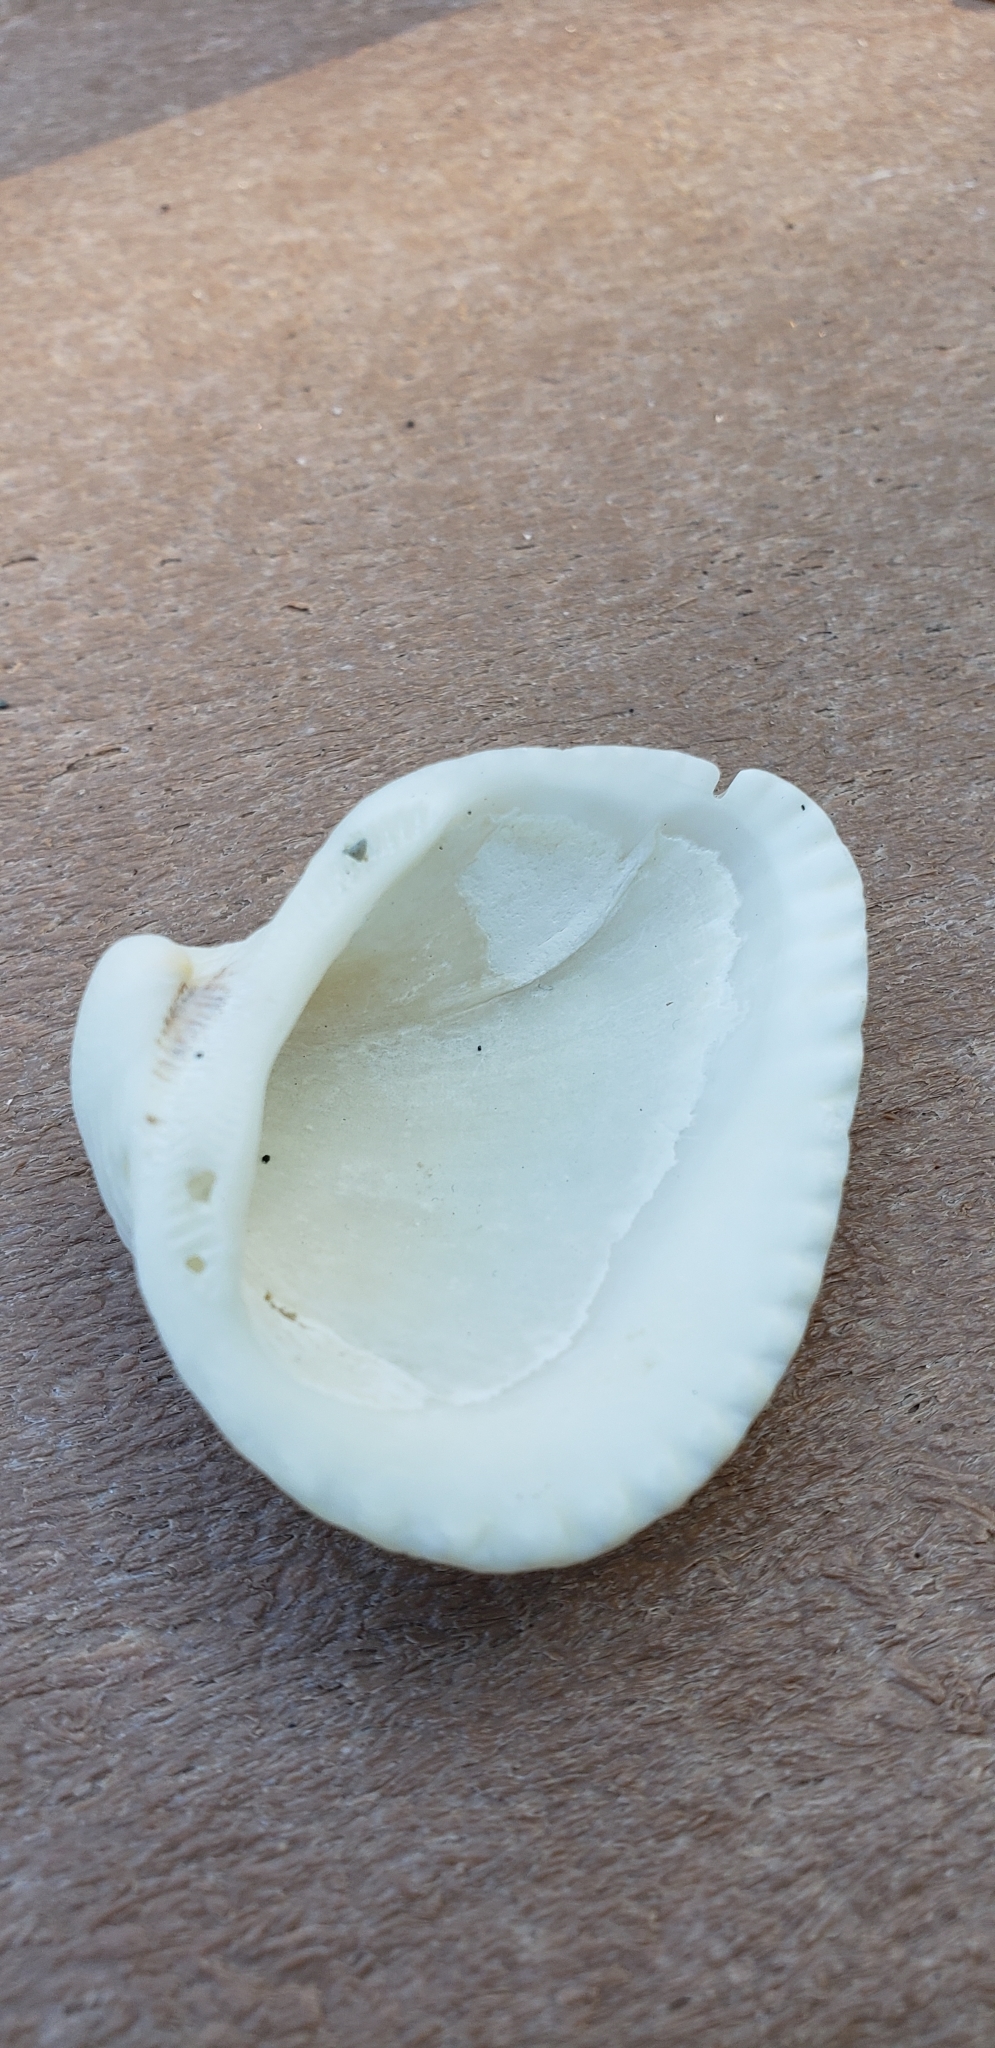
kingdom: Animalia
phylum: Mollusca
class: Bivalvia
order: Arcida
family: Noetiidae
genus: Noetia
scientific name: Noetia ponderosa
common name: Ponderous ark
